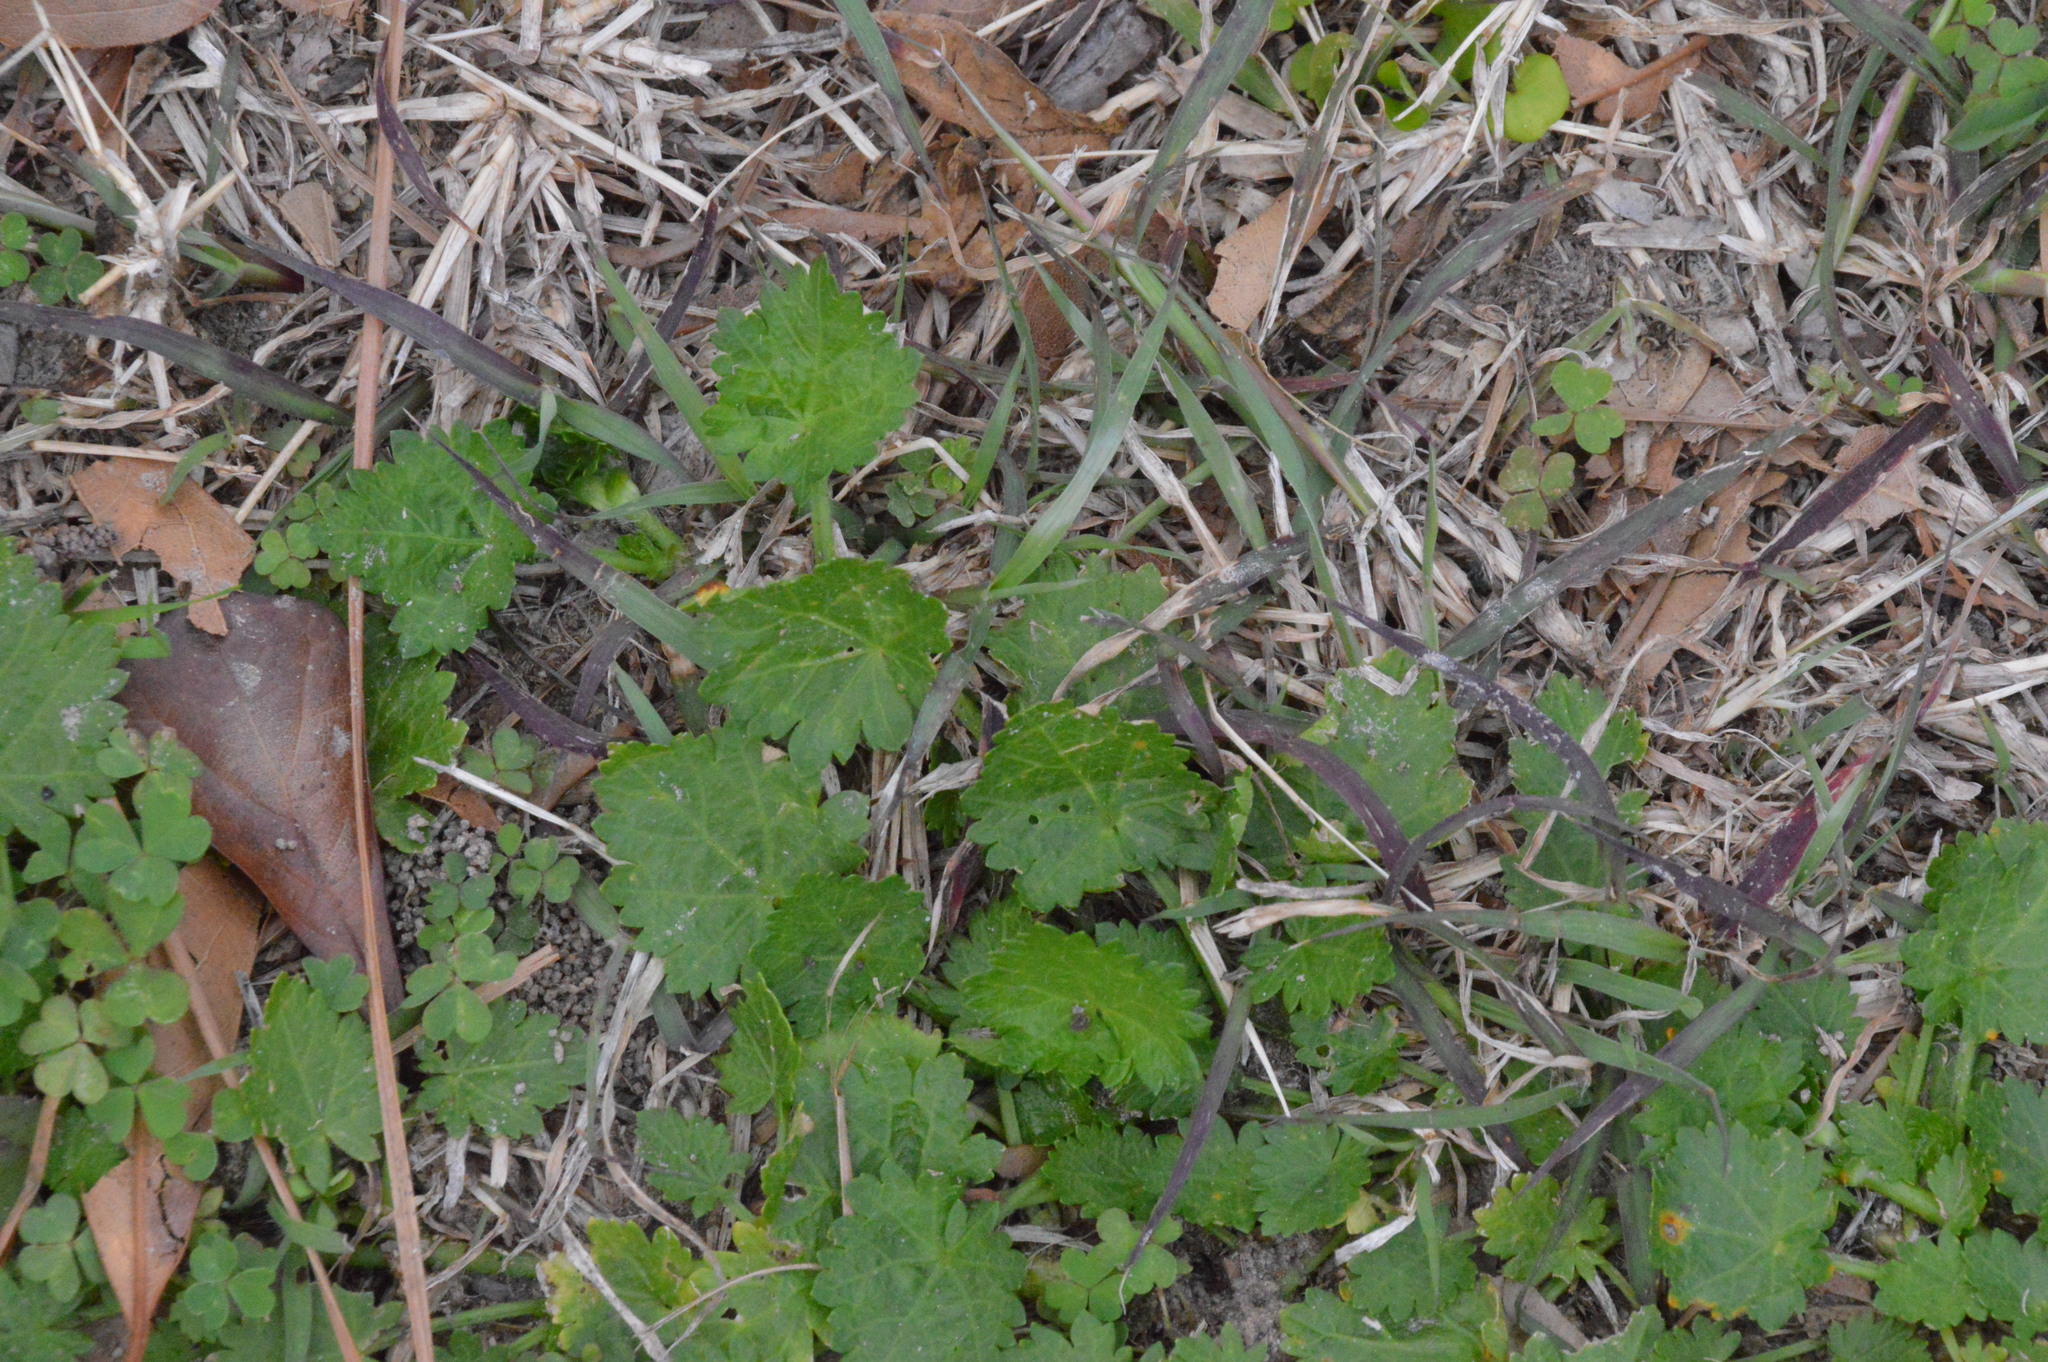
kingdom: Plantae
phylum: Tracheophyta
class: Magnoliopsida
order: Malvales
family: Malvaceae
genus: Modiola
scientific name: Modiola caroliniana
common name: Carolina bristlemallow
